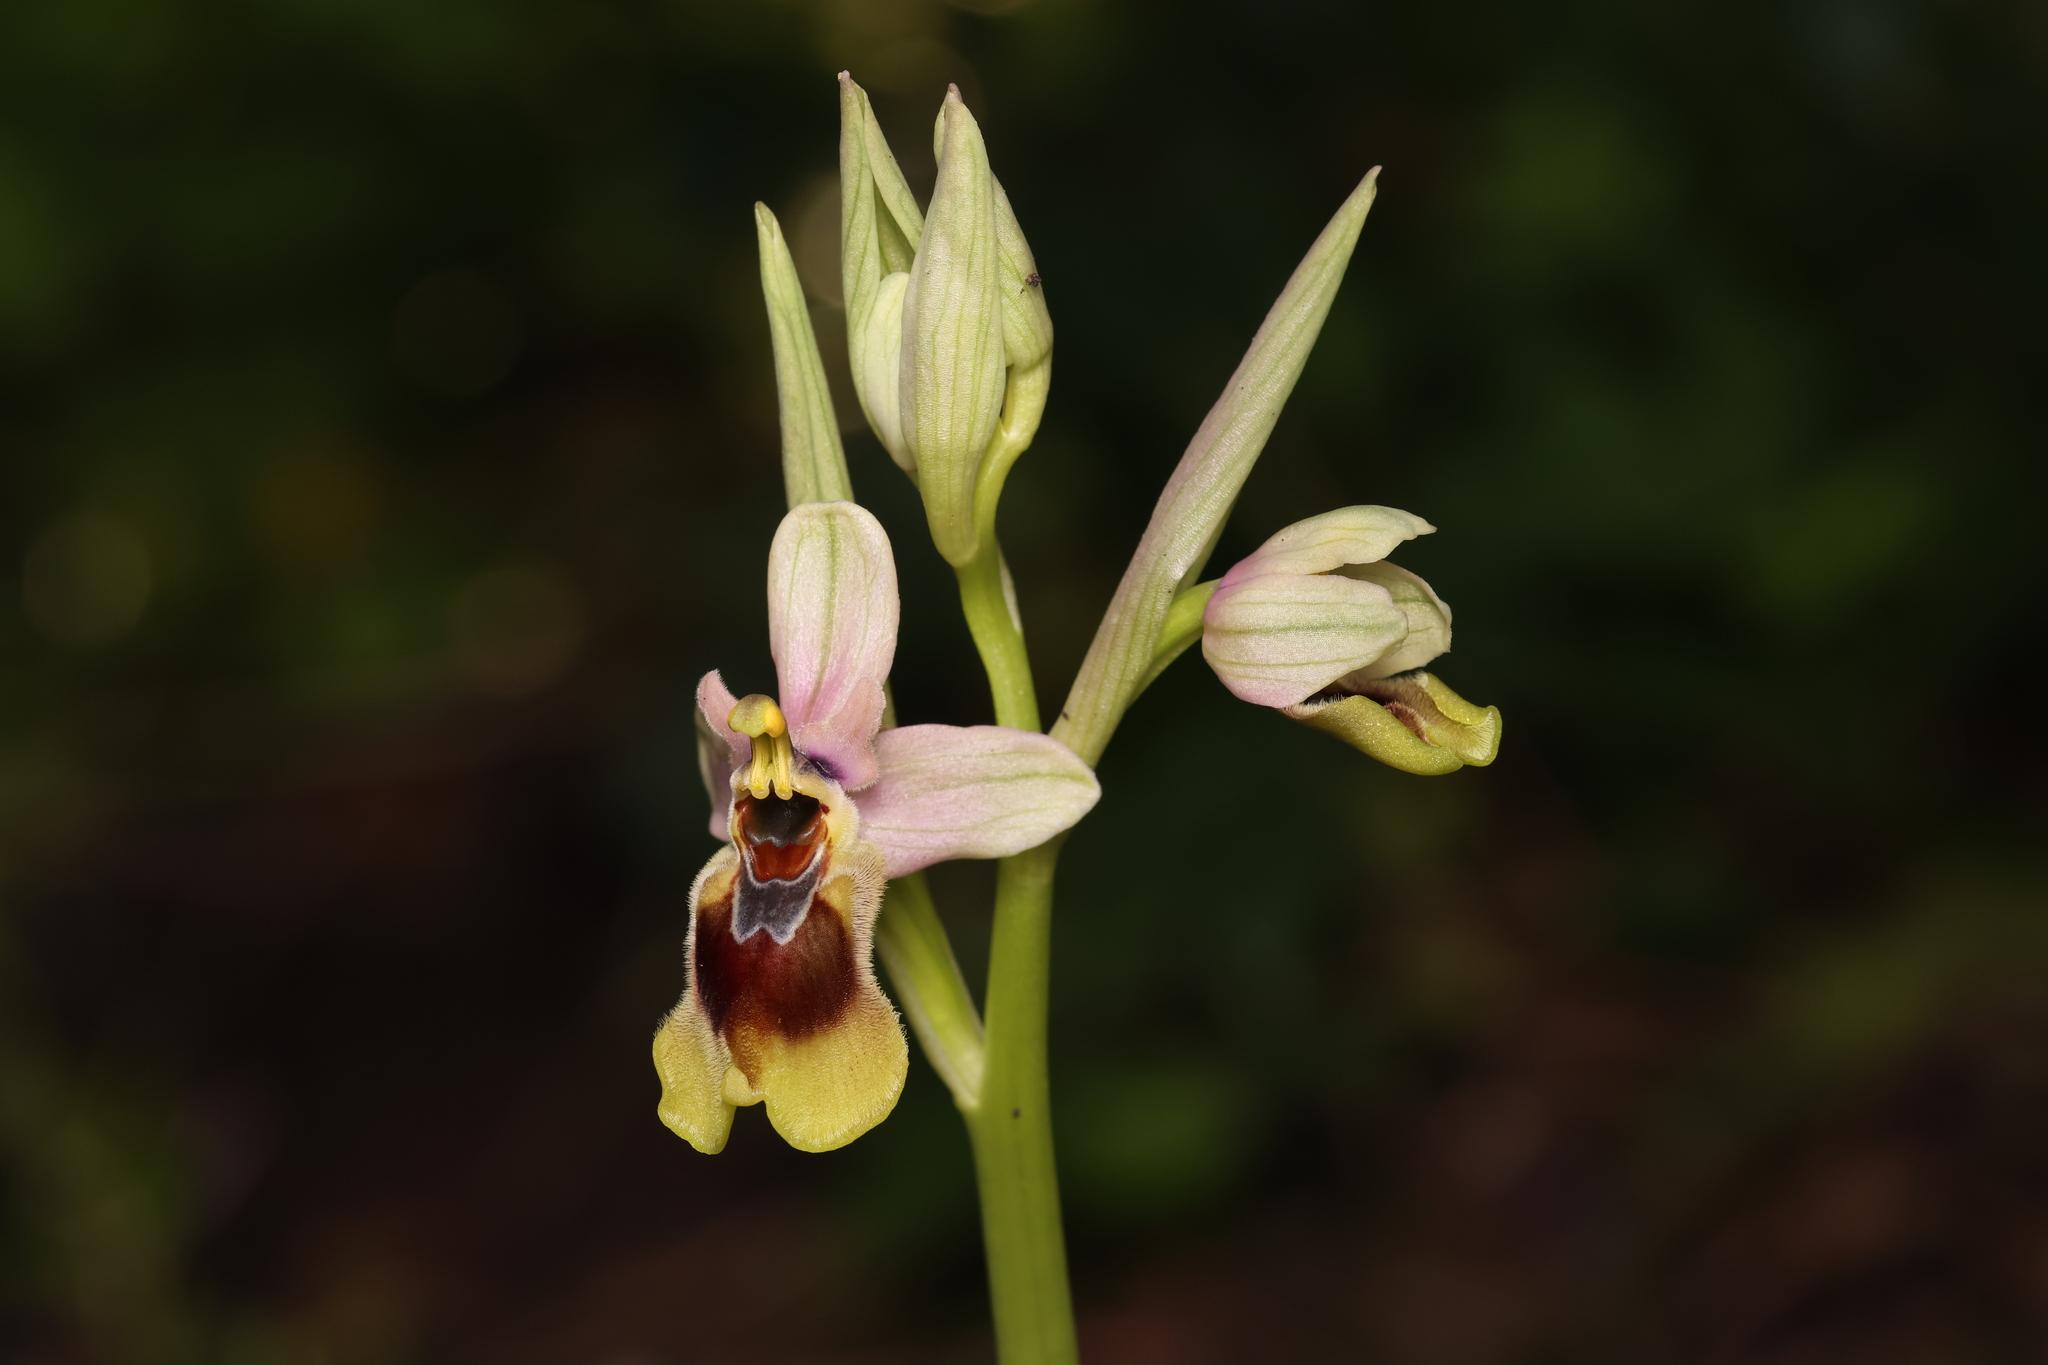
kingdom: Plantae
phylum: Tracheophyta
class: Liliopsida
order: Asparagales
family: Orchidaceae
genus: Ophrys
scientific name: Ophrys tenthredinifera
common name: Sawfly orchid
